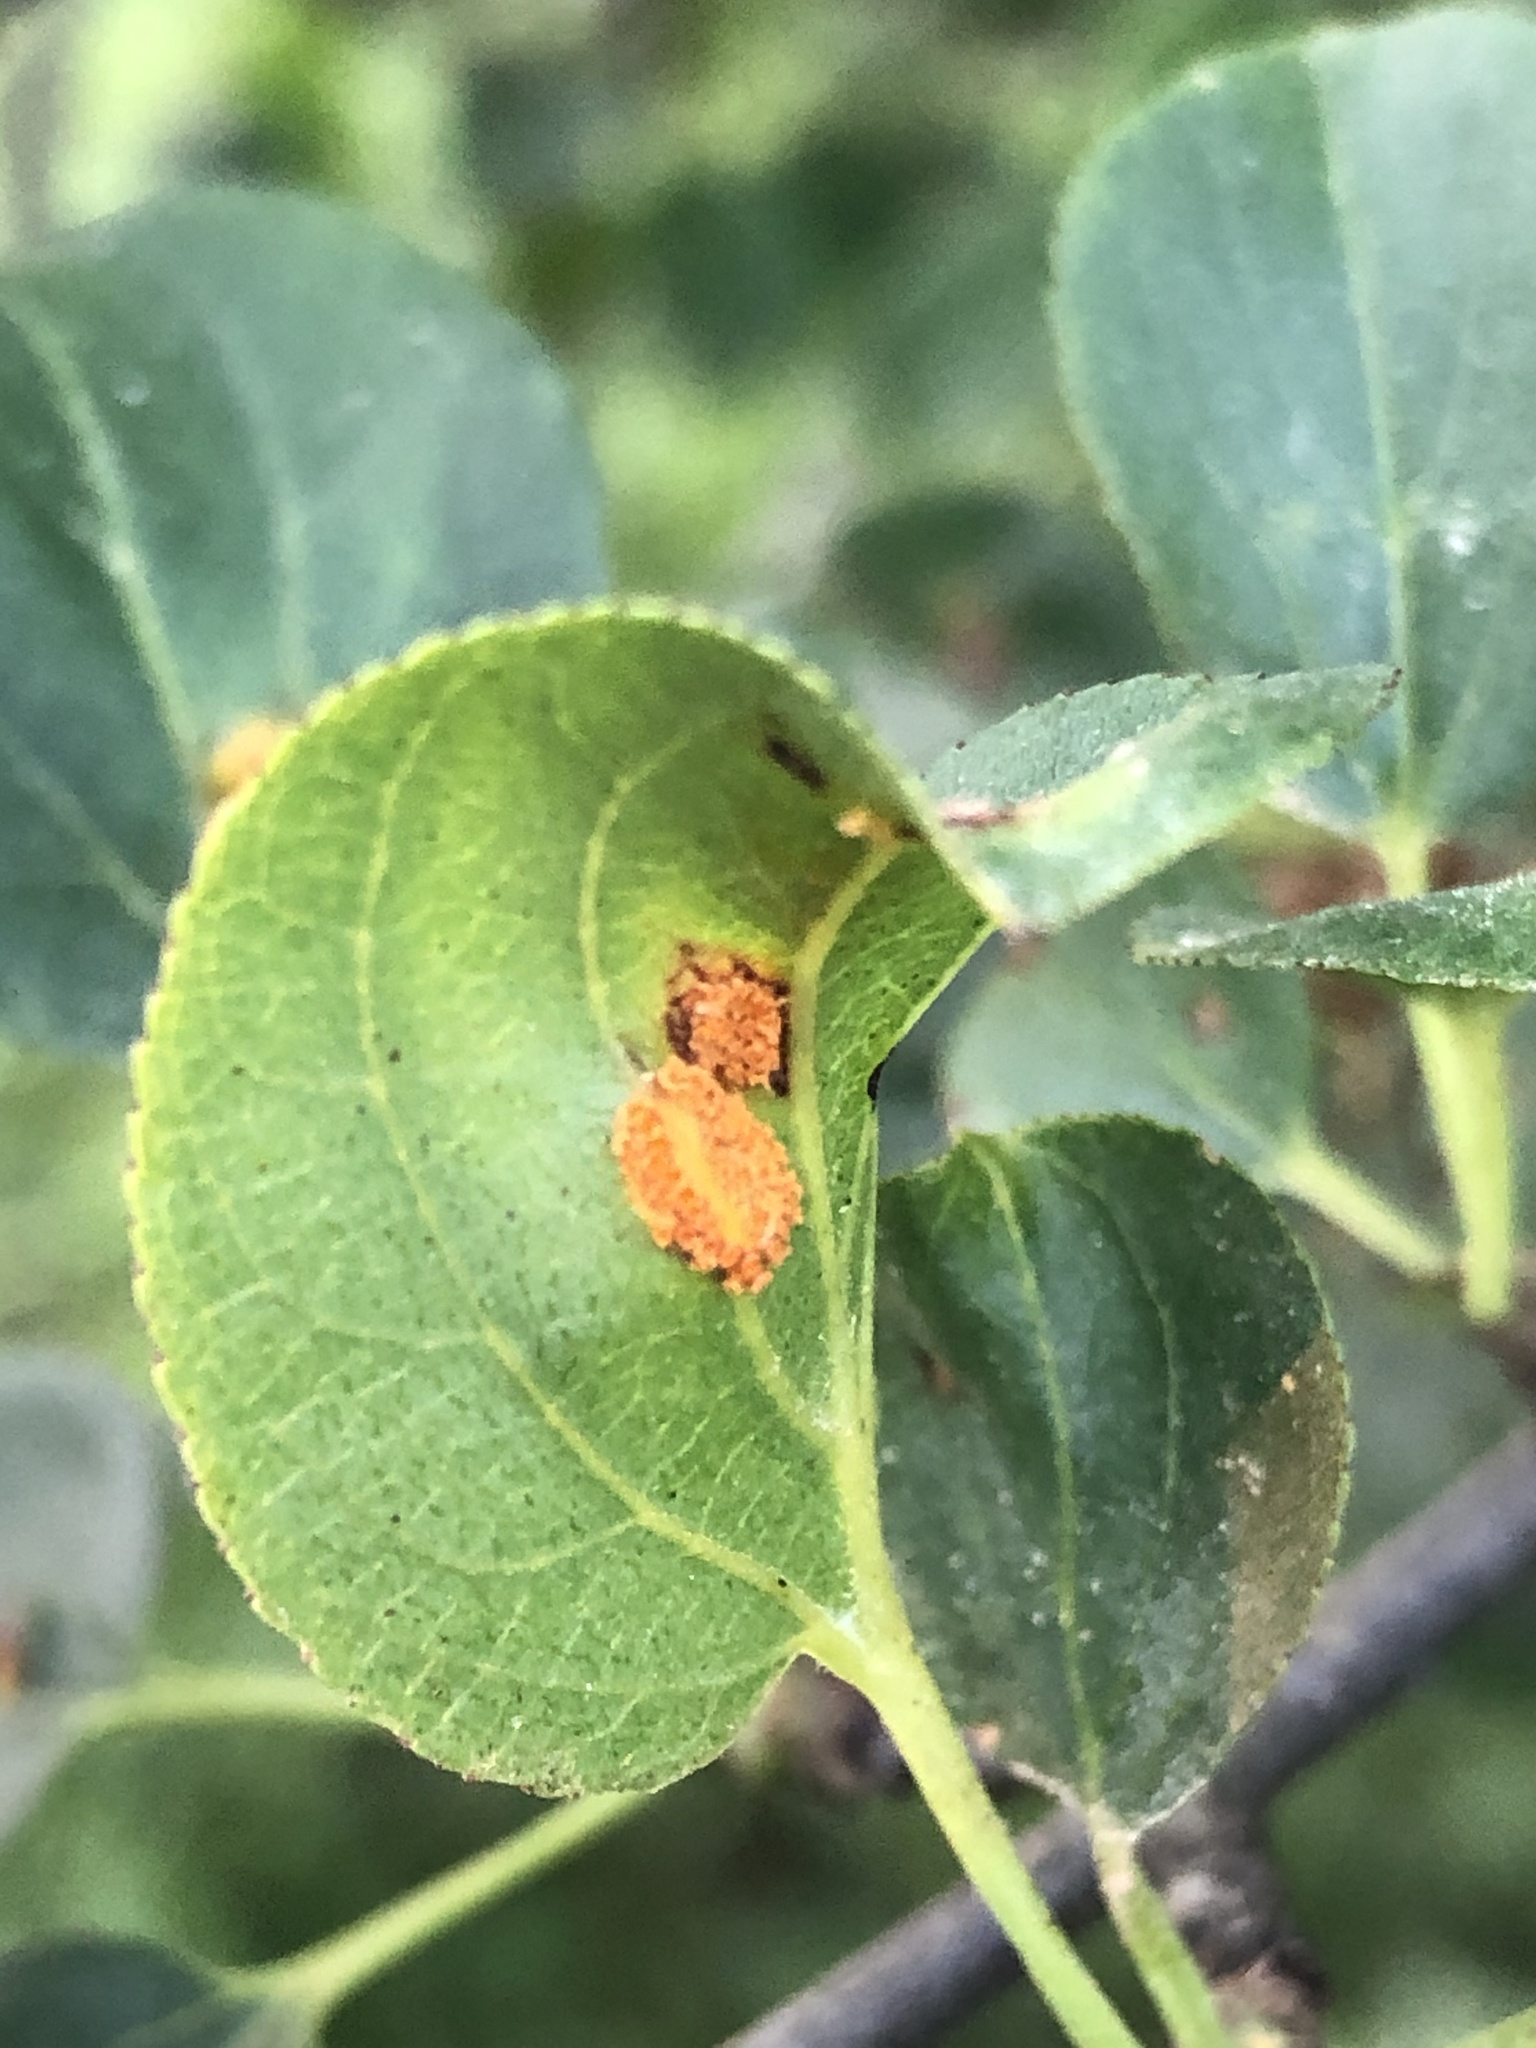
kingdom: Fungi
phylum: Basidiomycota
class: Pucciniomycetes
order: Pucciniales
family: Pucciniaceae
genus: Puccinia
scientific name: Puccinia coronata
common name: Crown rust
